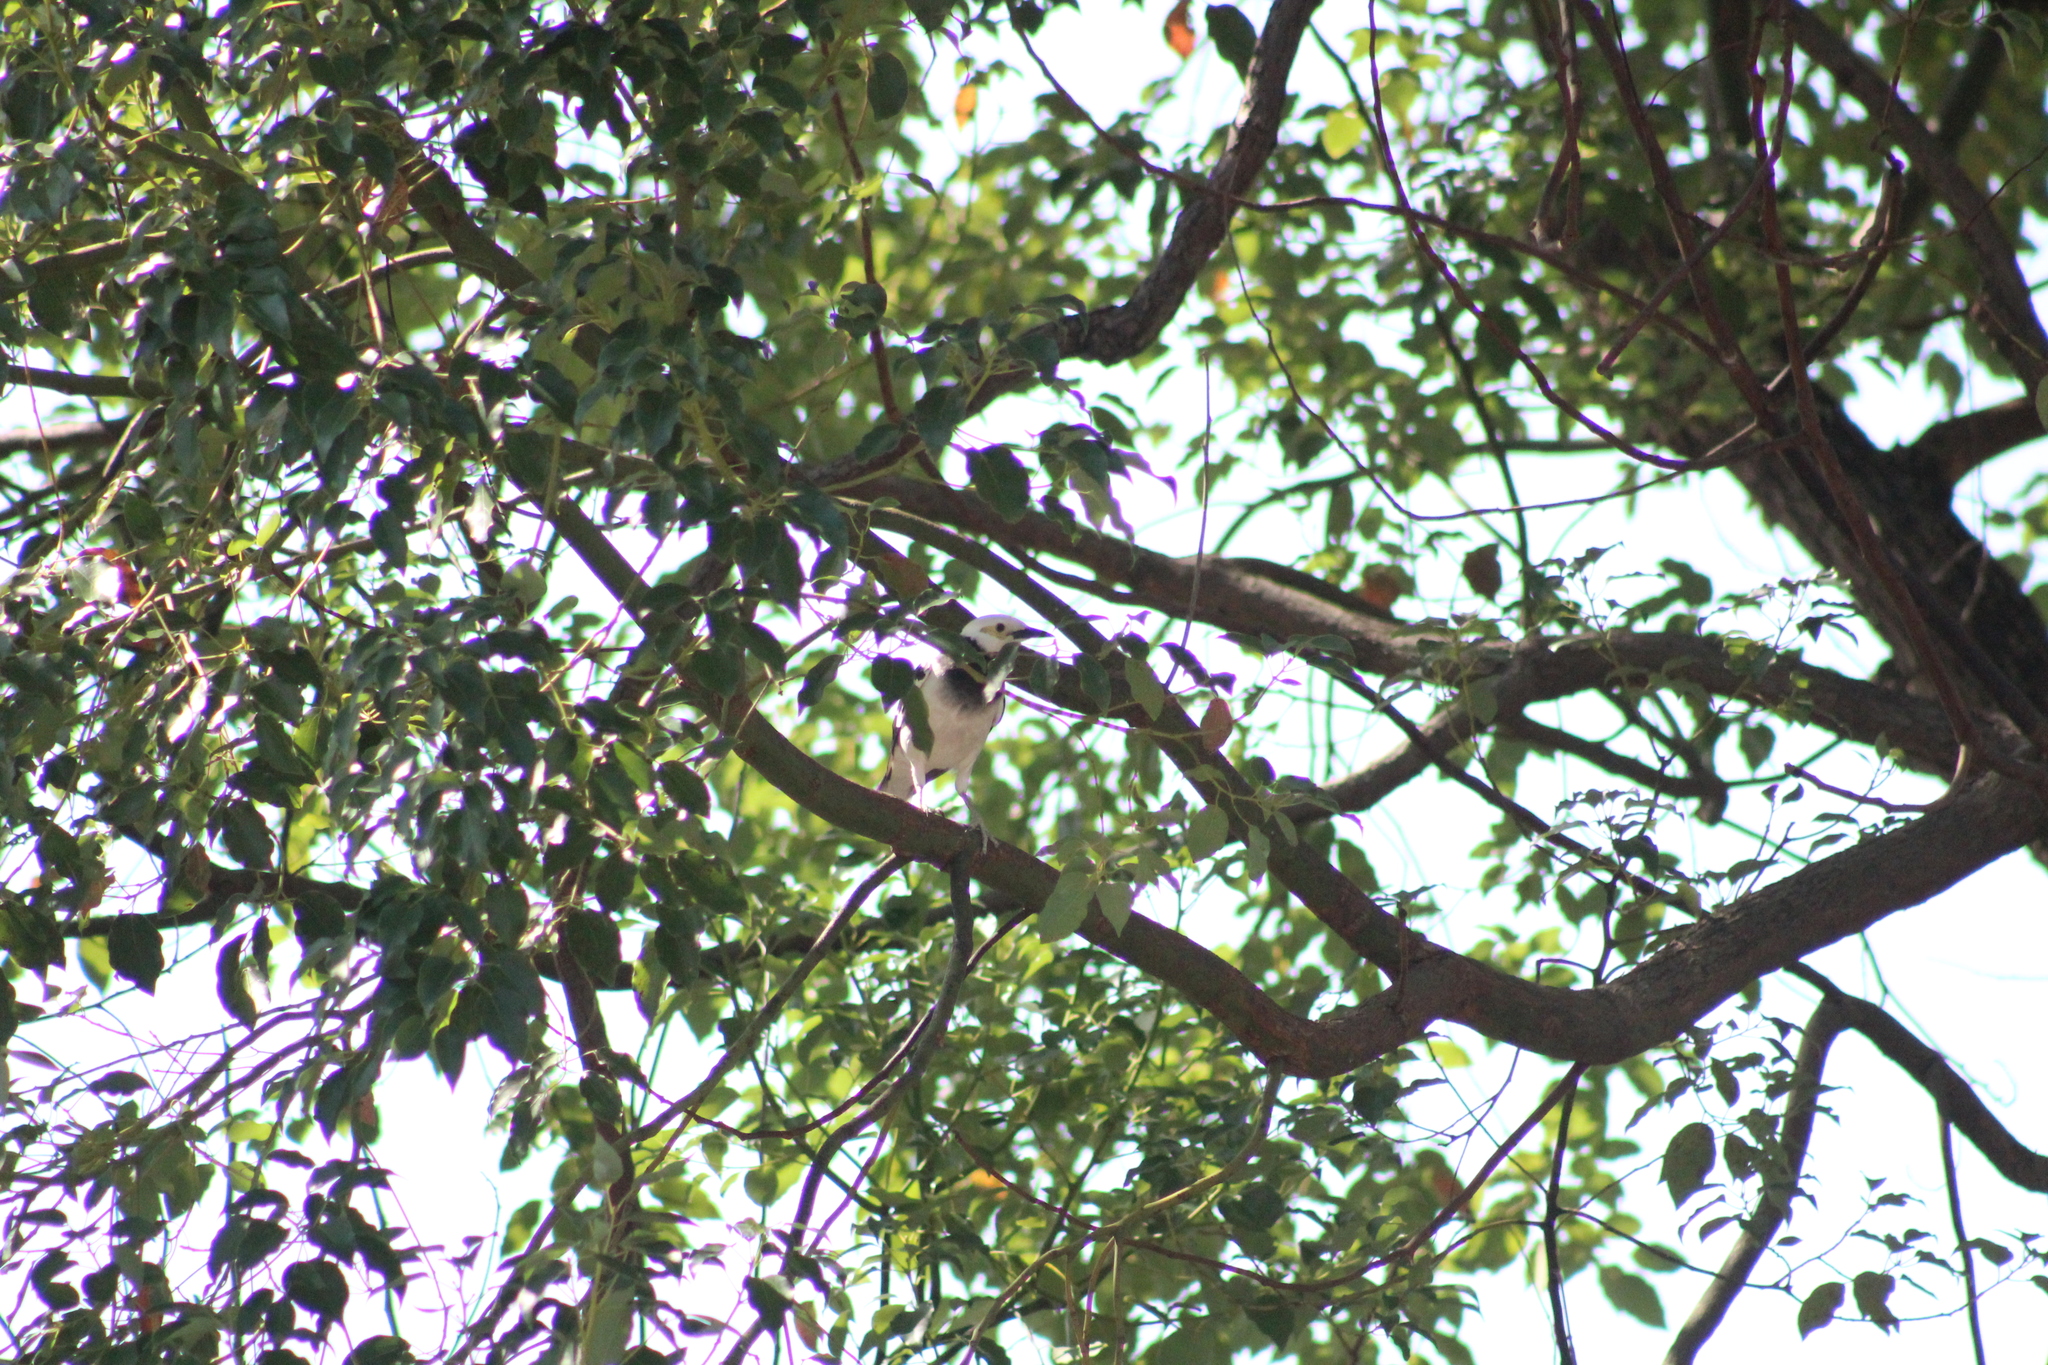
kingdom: Animalia
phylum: Chordata
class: Aves
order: Passeriformes
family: Sturnidae
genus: Gracupica
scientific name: Gracupica nigricollis
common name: Black-collared starling
